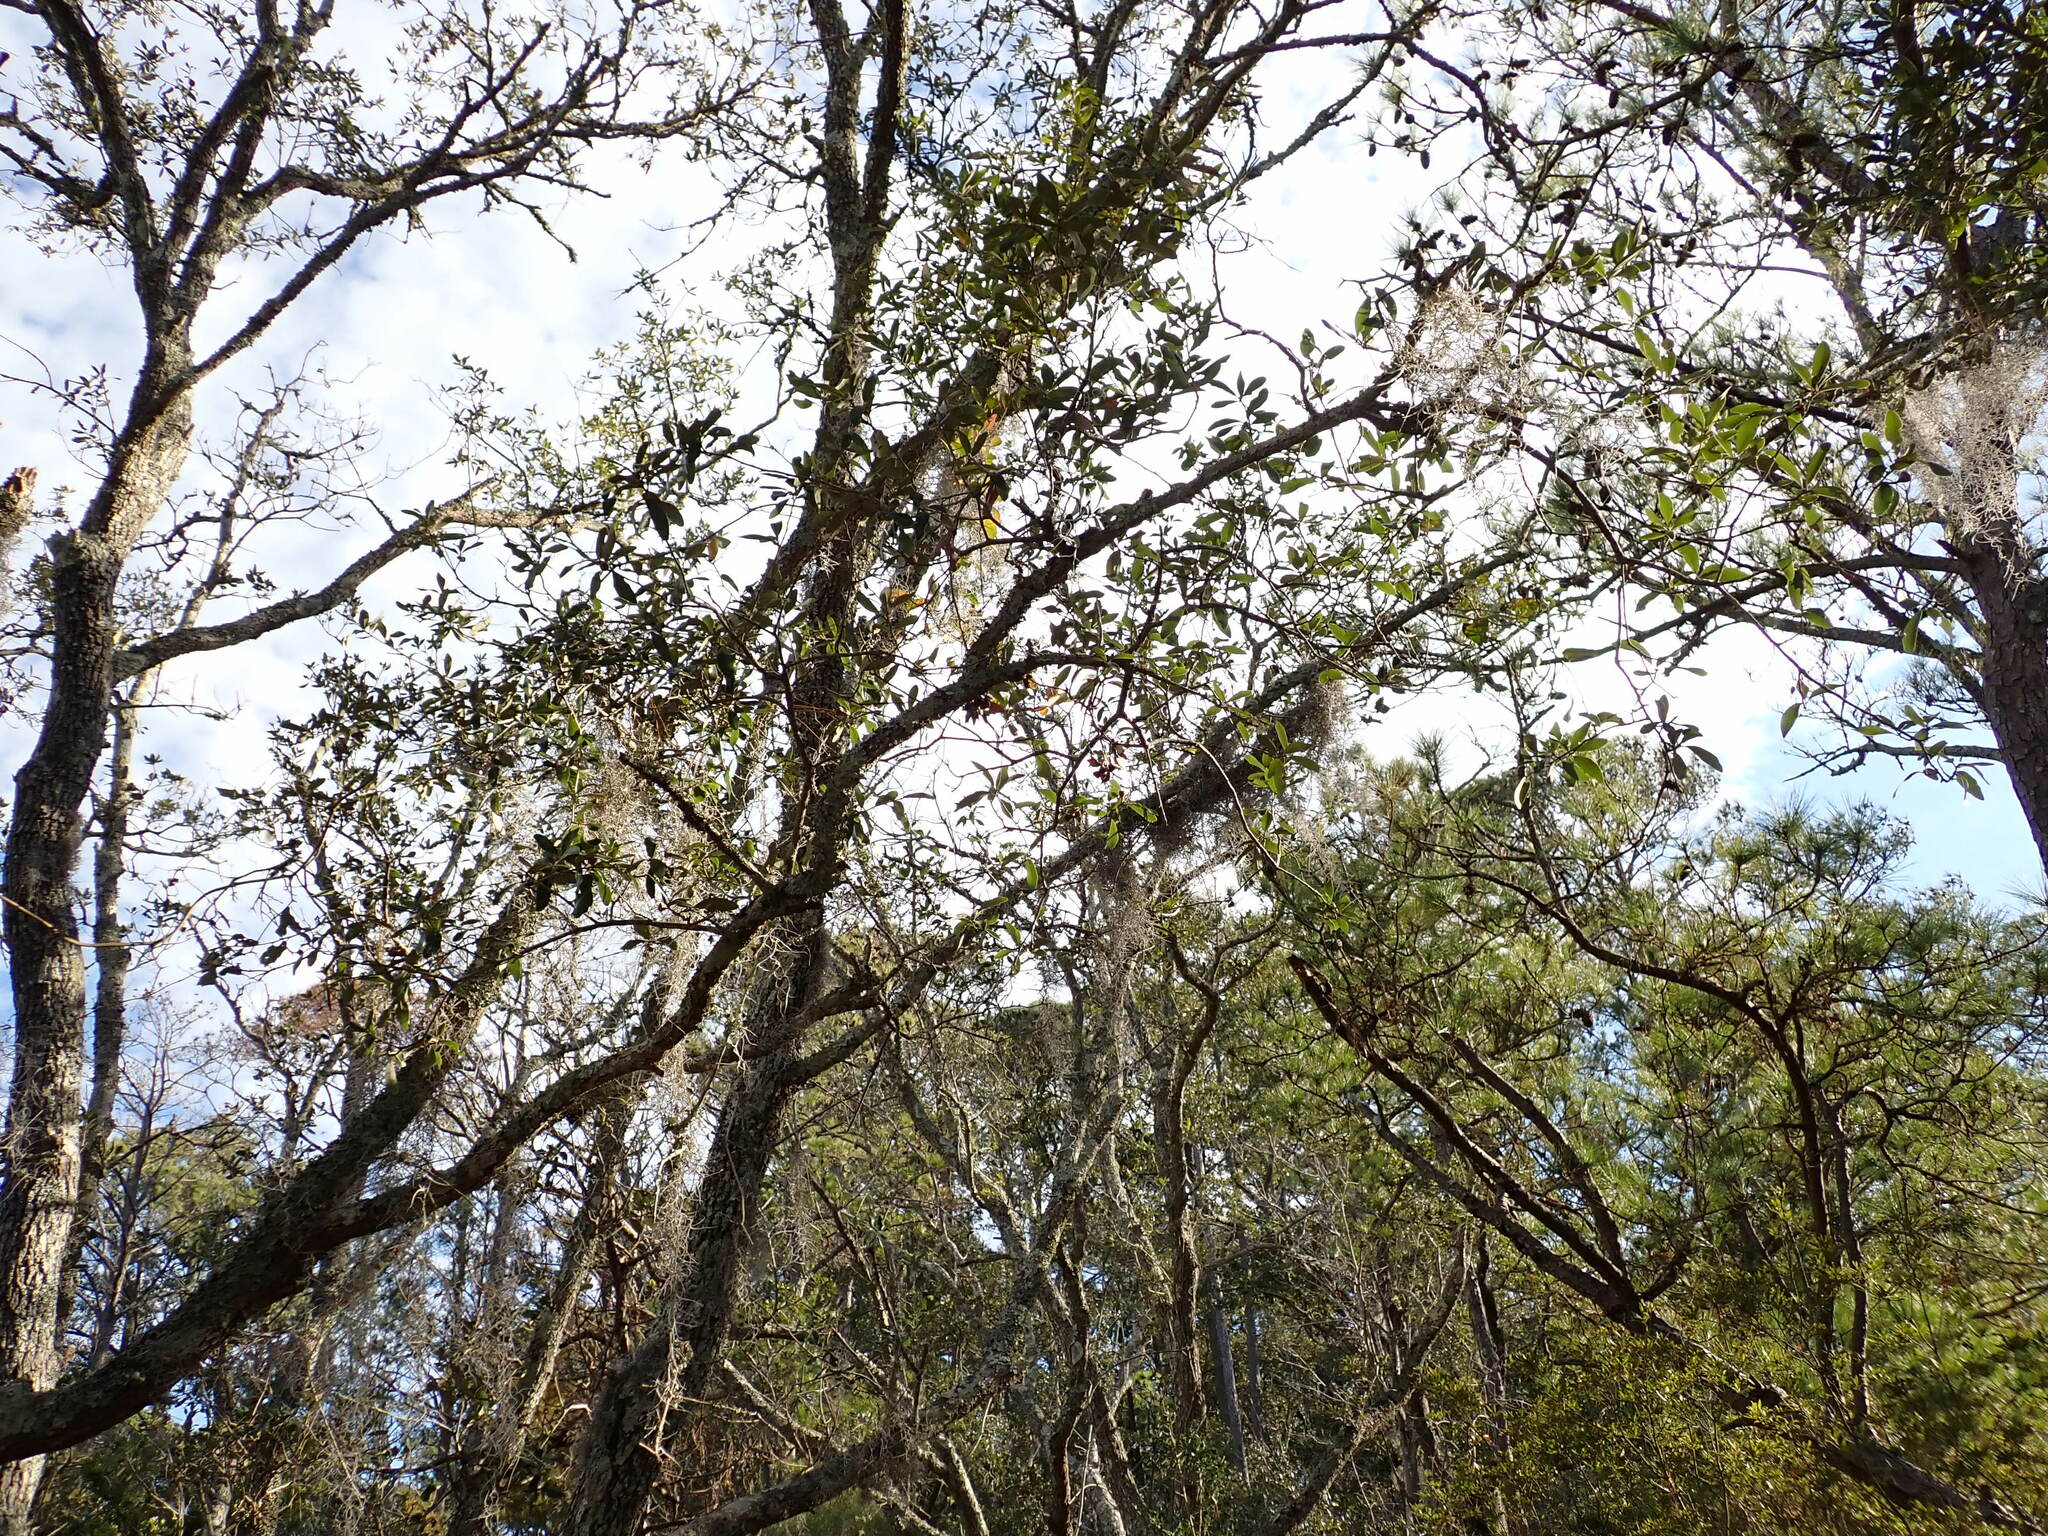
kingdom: Plantae
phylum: Tracheophyta
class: Liliopsida
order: Poales
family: Bromeliaceae
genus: Tillandsia
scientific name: Tillandsia usneoides
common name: Spanish moss
